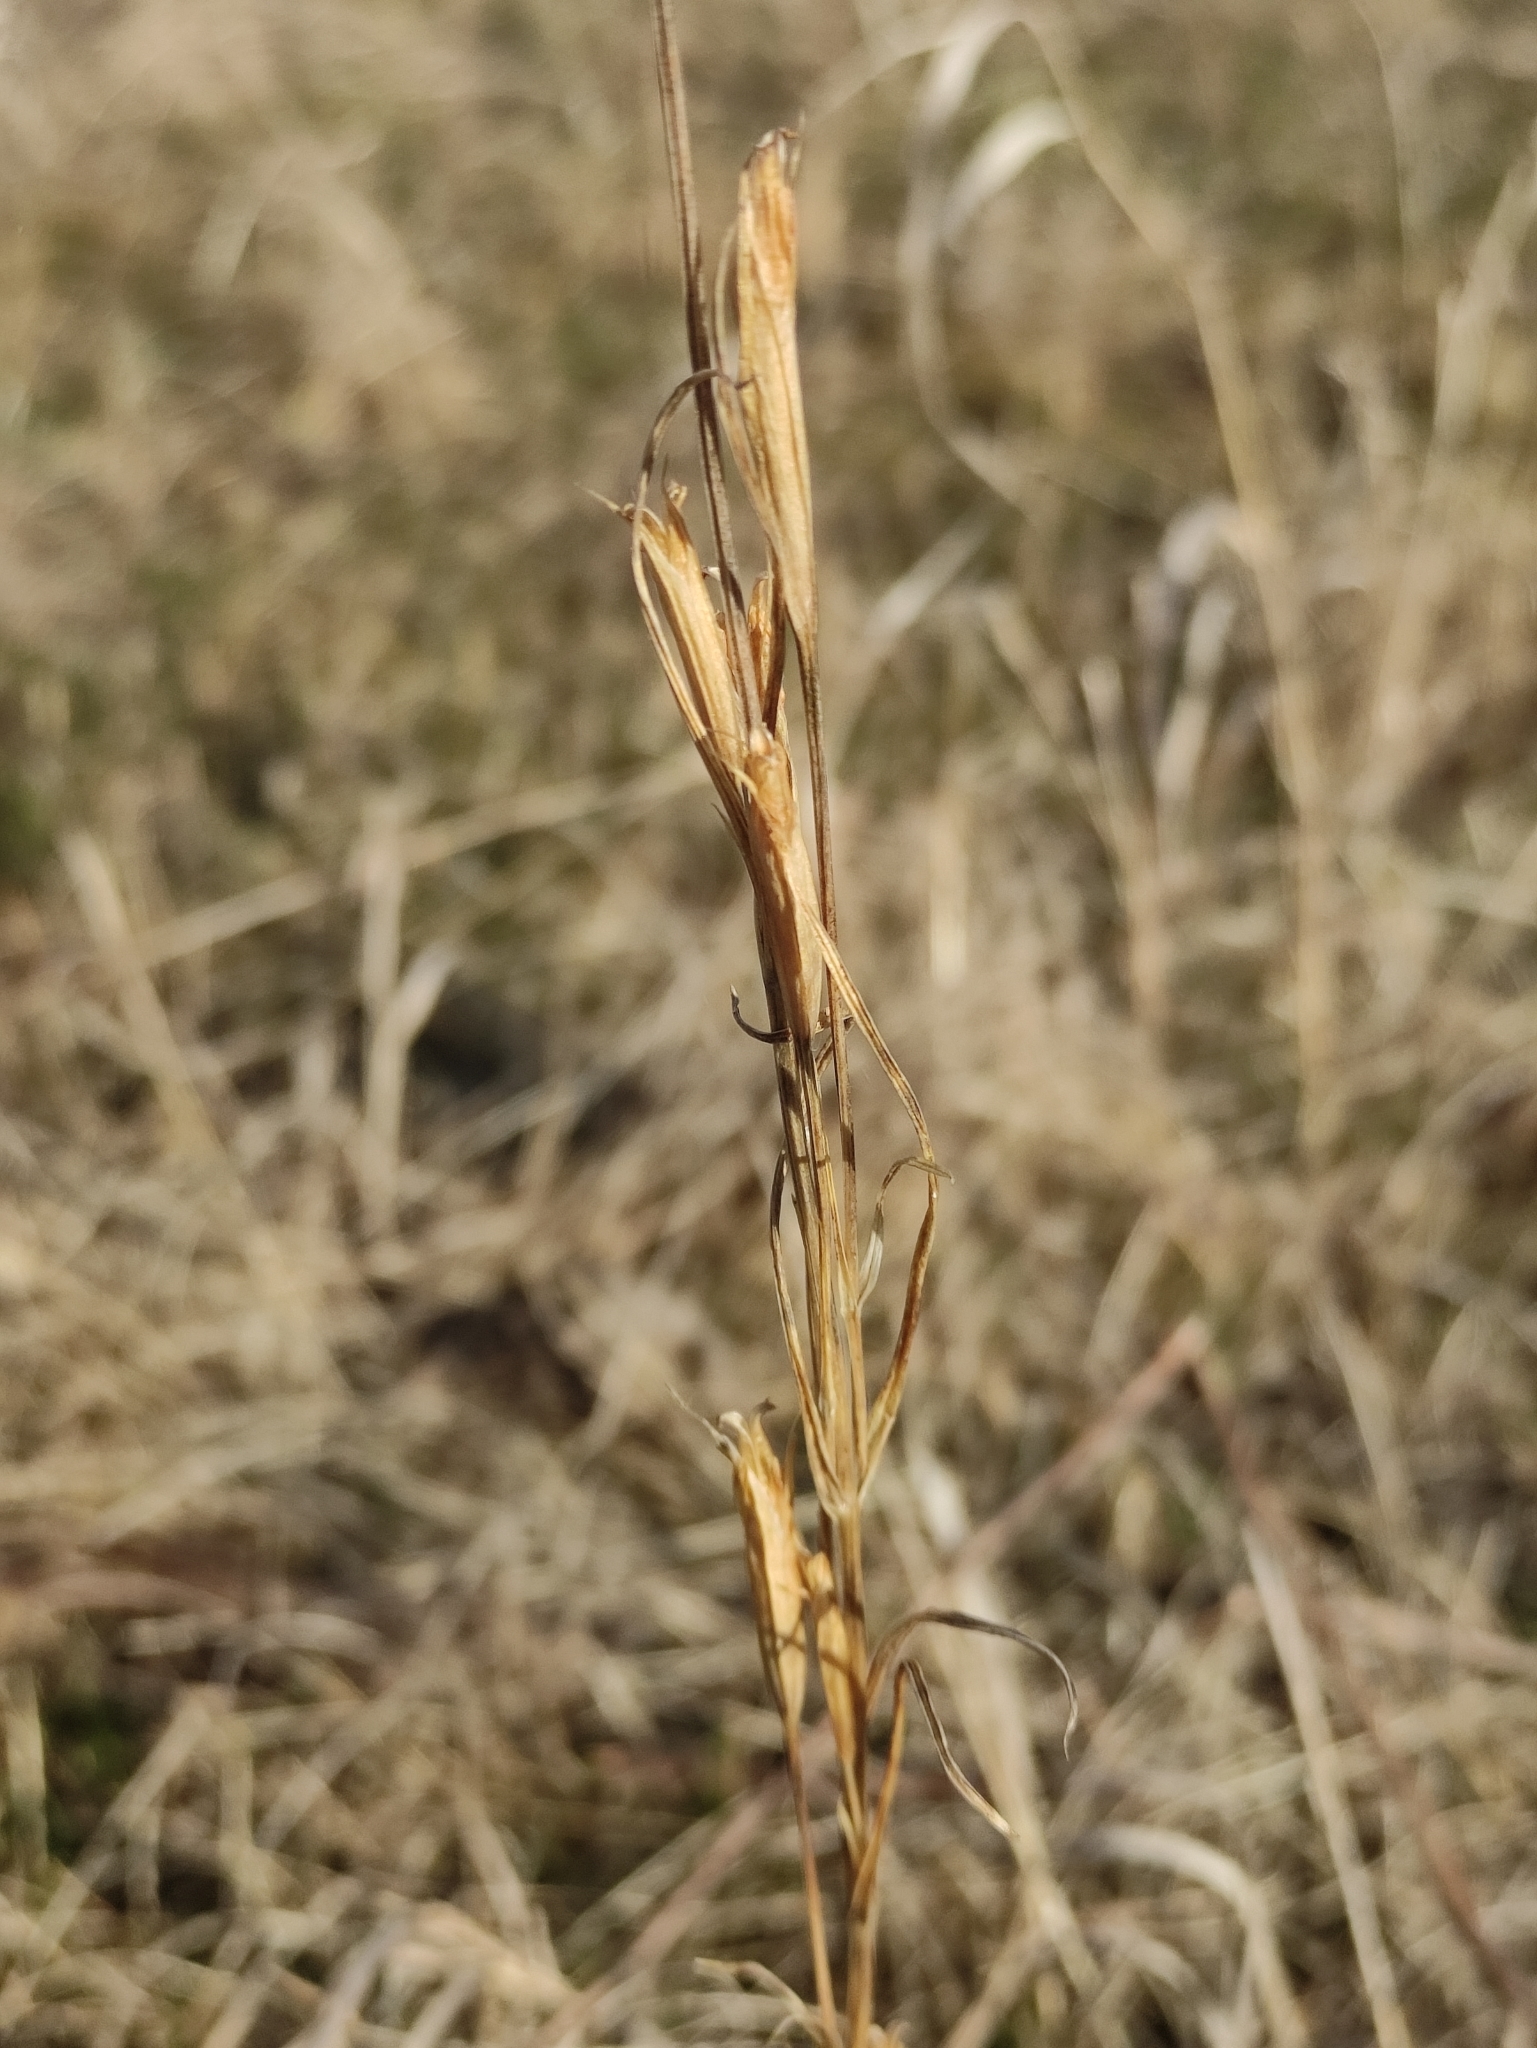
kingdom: Plantae
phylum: Tracheophyta
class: Magnoliopsida
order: Gentianales
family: Gentianaceae
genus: Gentianopsis
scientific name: Gentianopsis barbata
